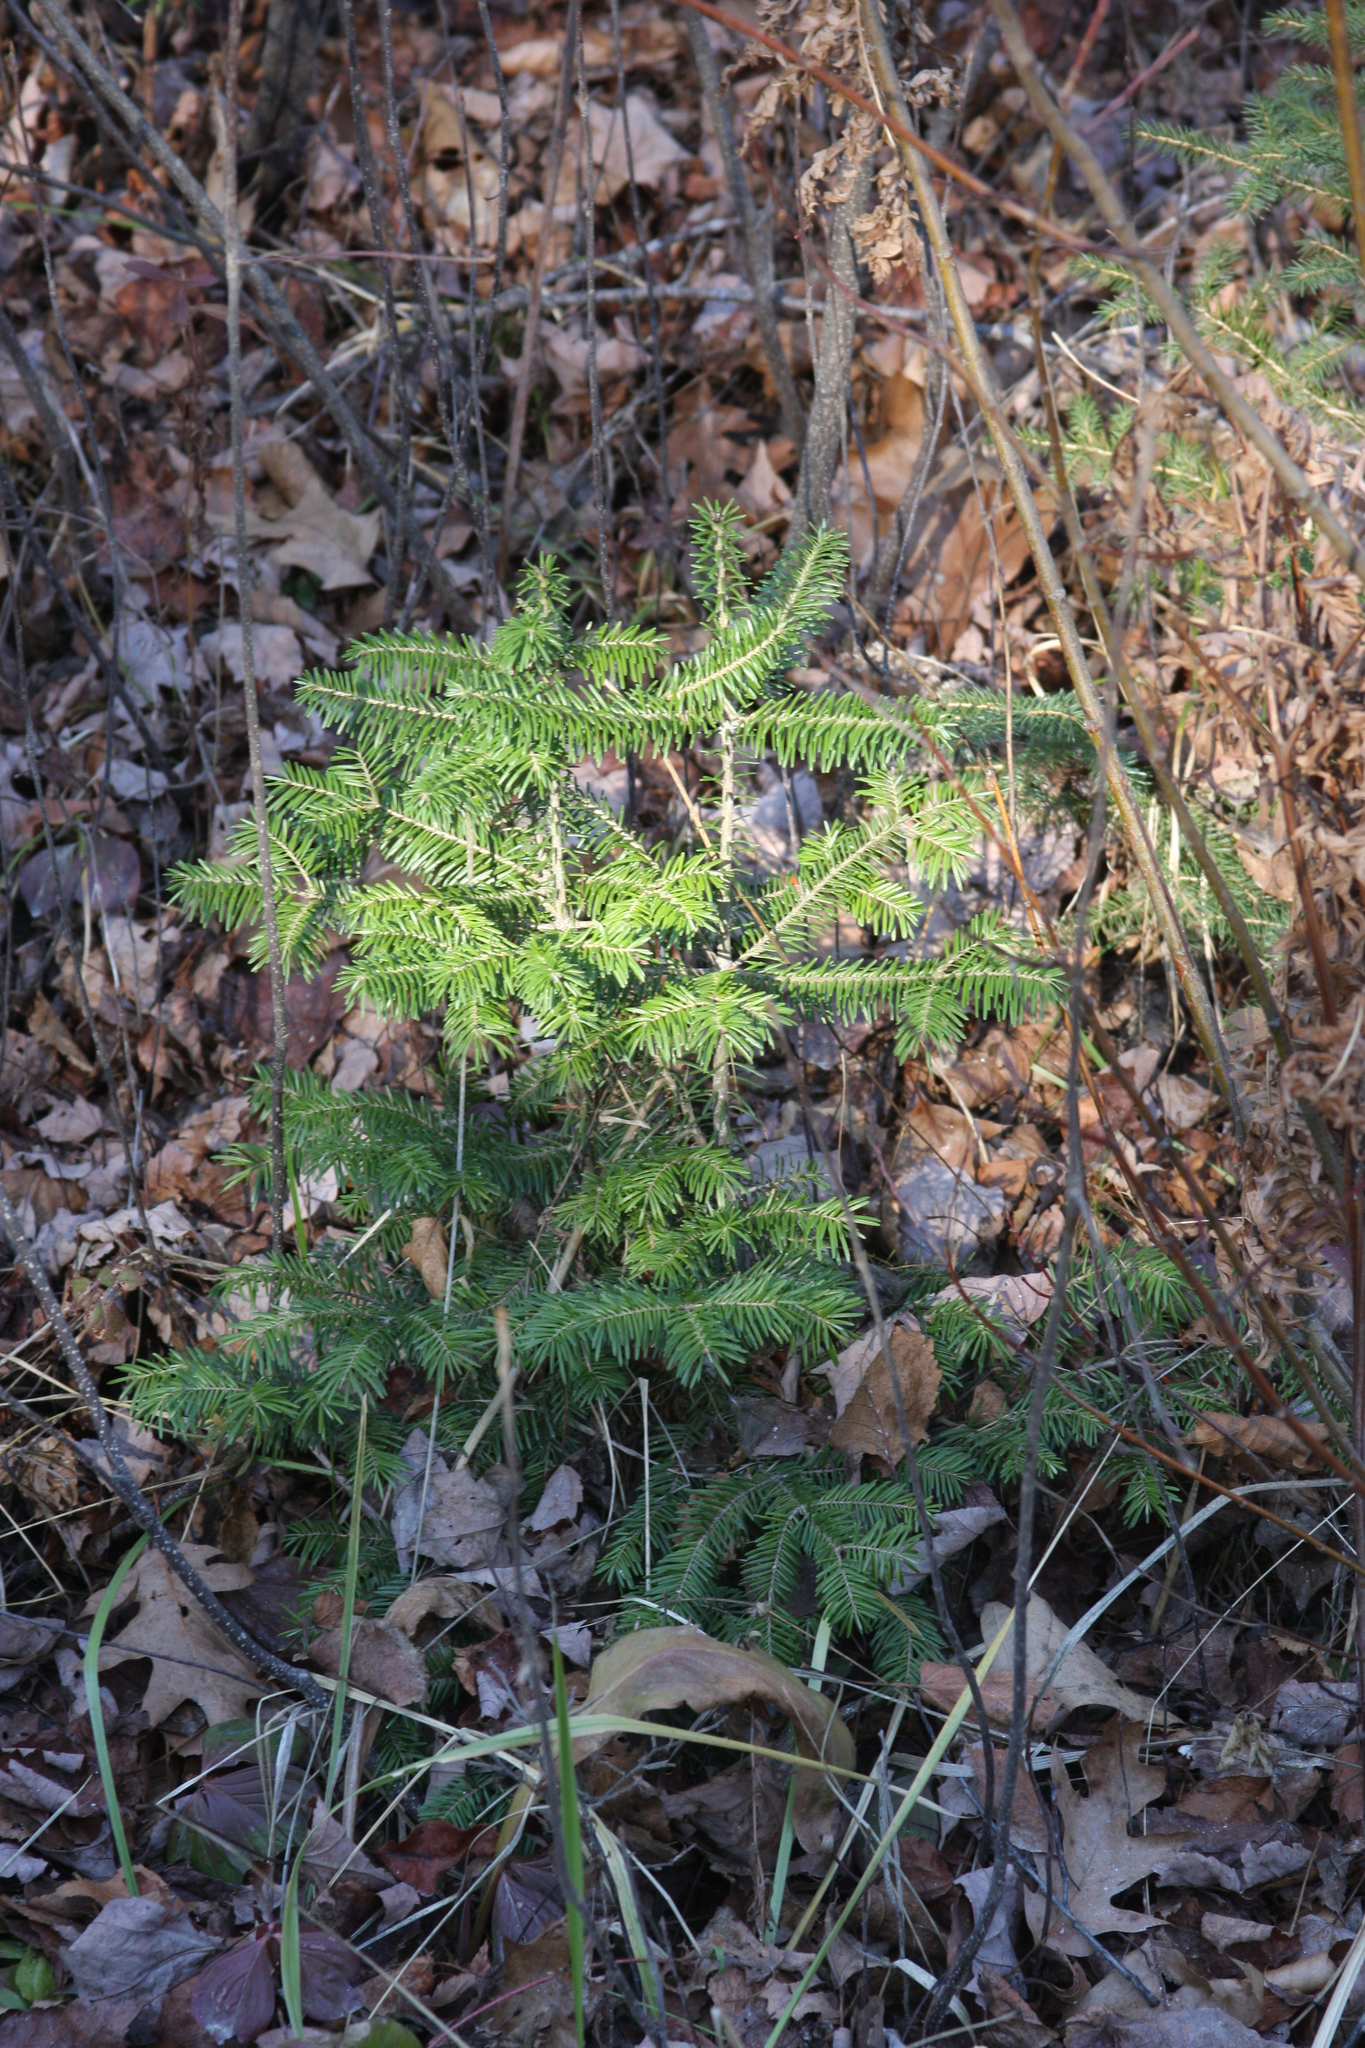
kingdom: Plantae
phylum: Tracheophyta
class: Pinopsida
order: Pinales
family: Pinaceae
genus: Abies
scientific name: Abies balsamea
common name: Balsam fir
